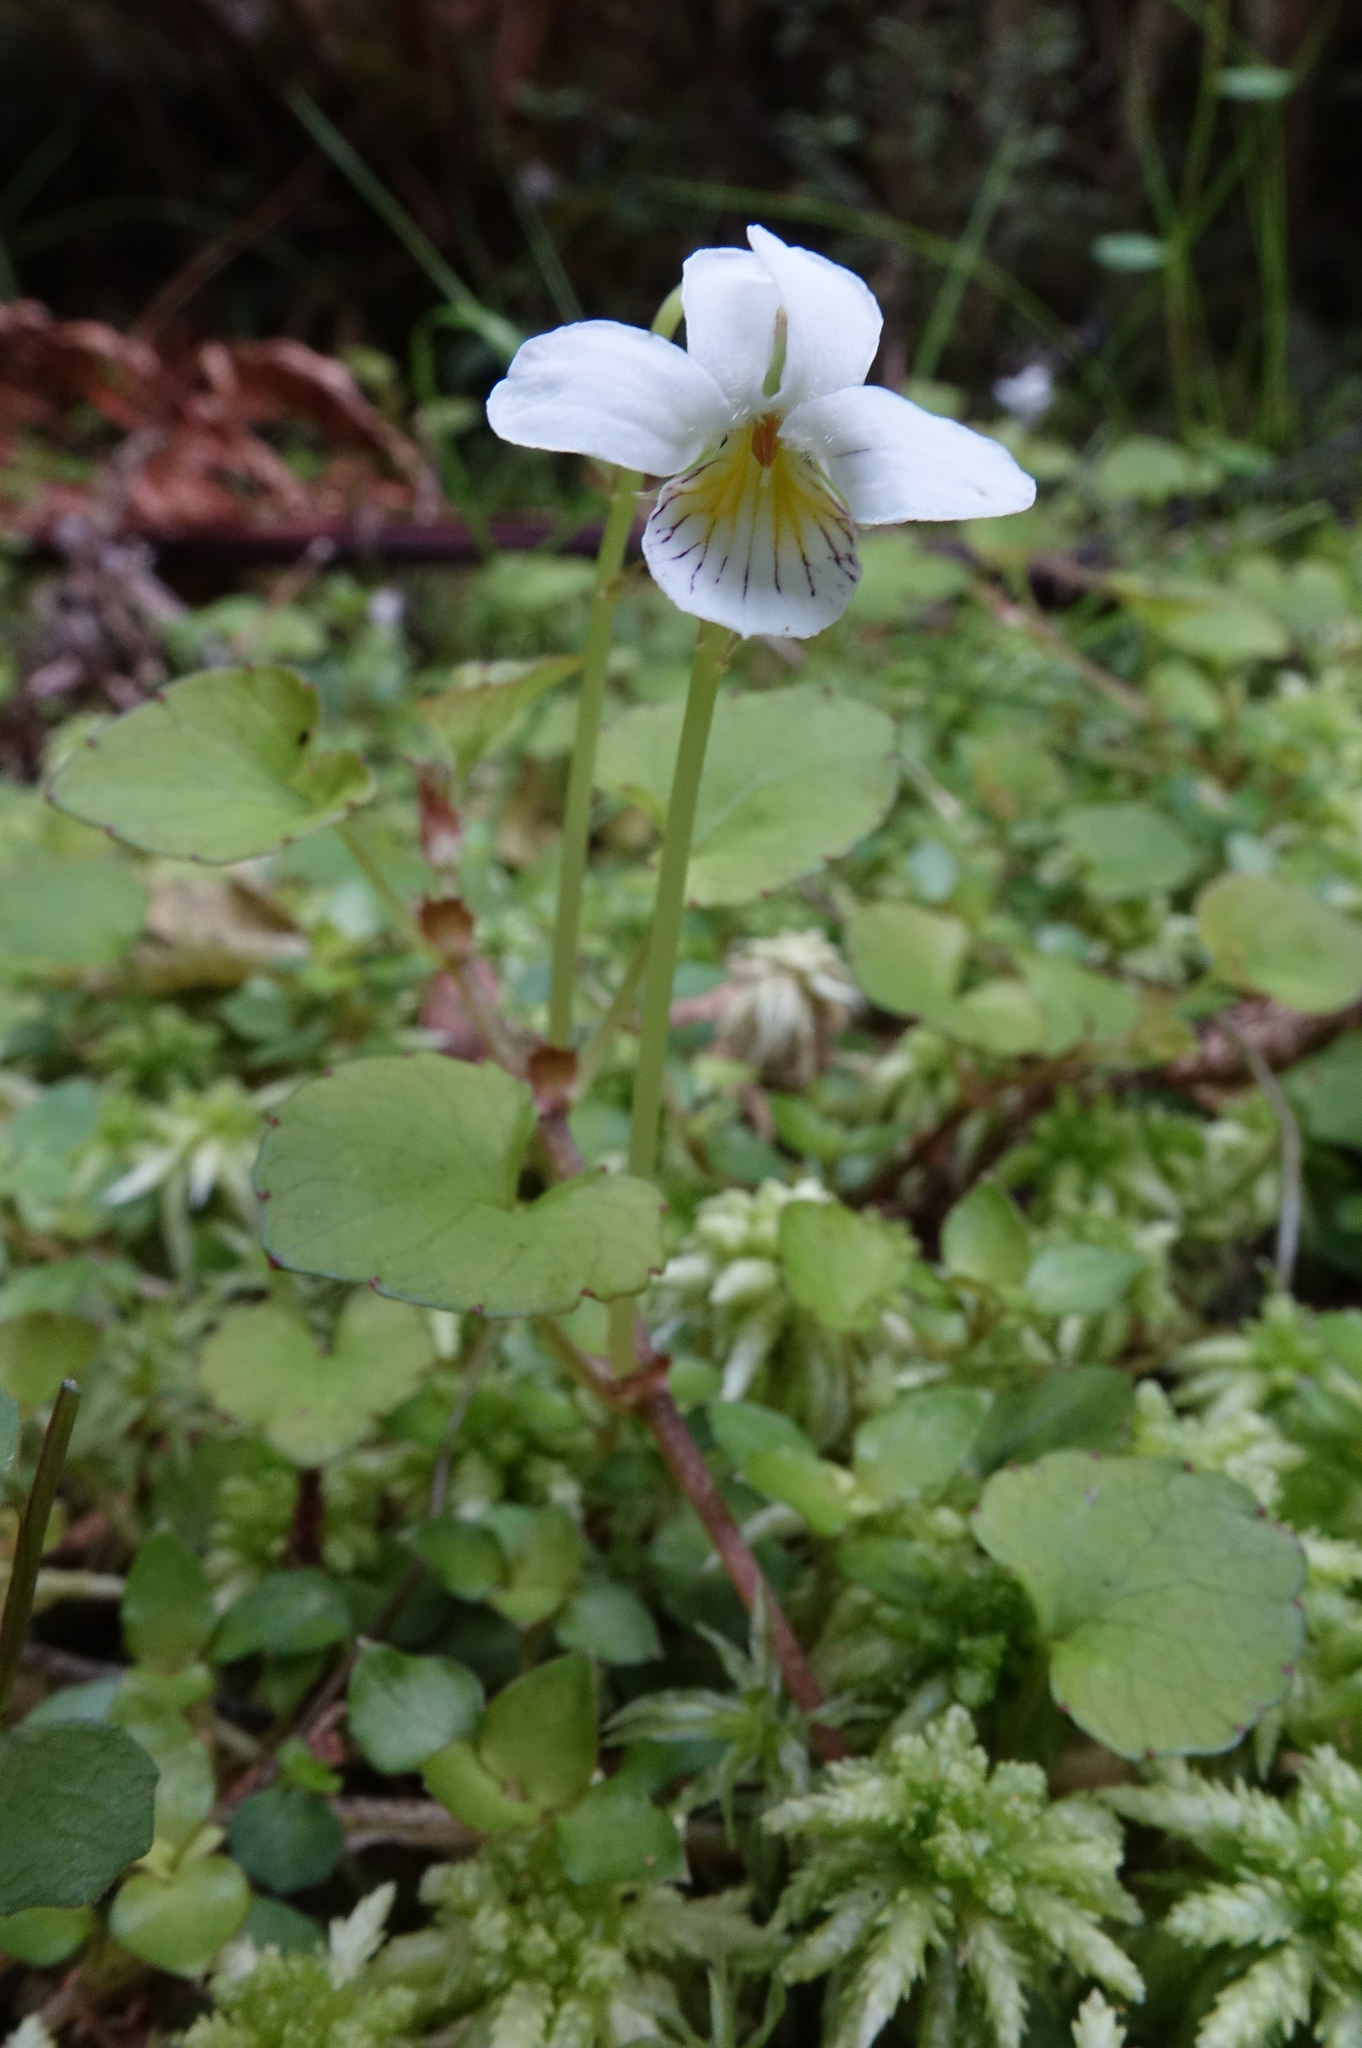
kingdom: Plantae
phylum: Tracheophyta
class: Magnoliopsida
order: Malpighiales
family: Violaceae
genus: Viola
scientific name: Viola filicaulis
